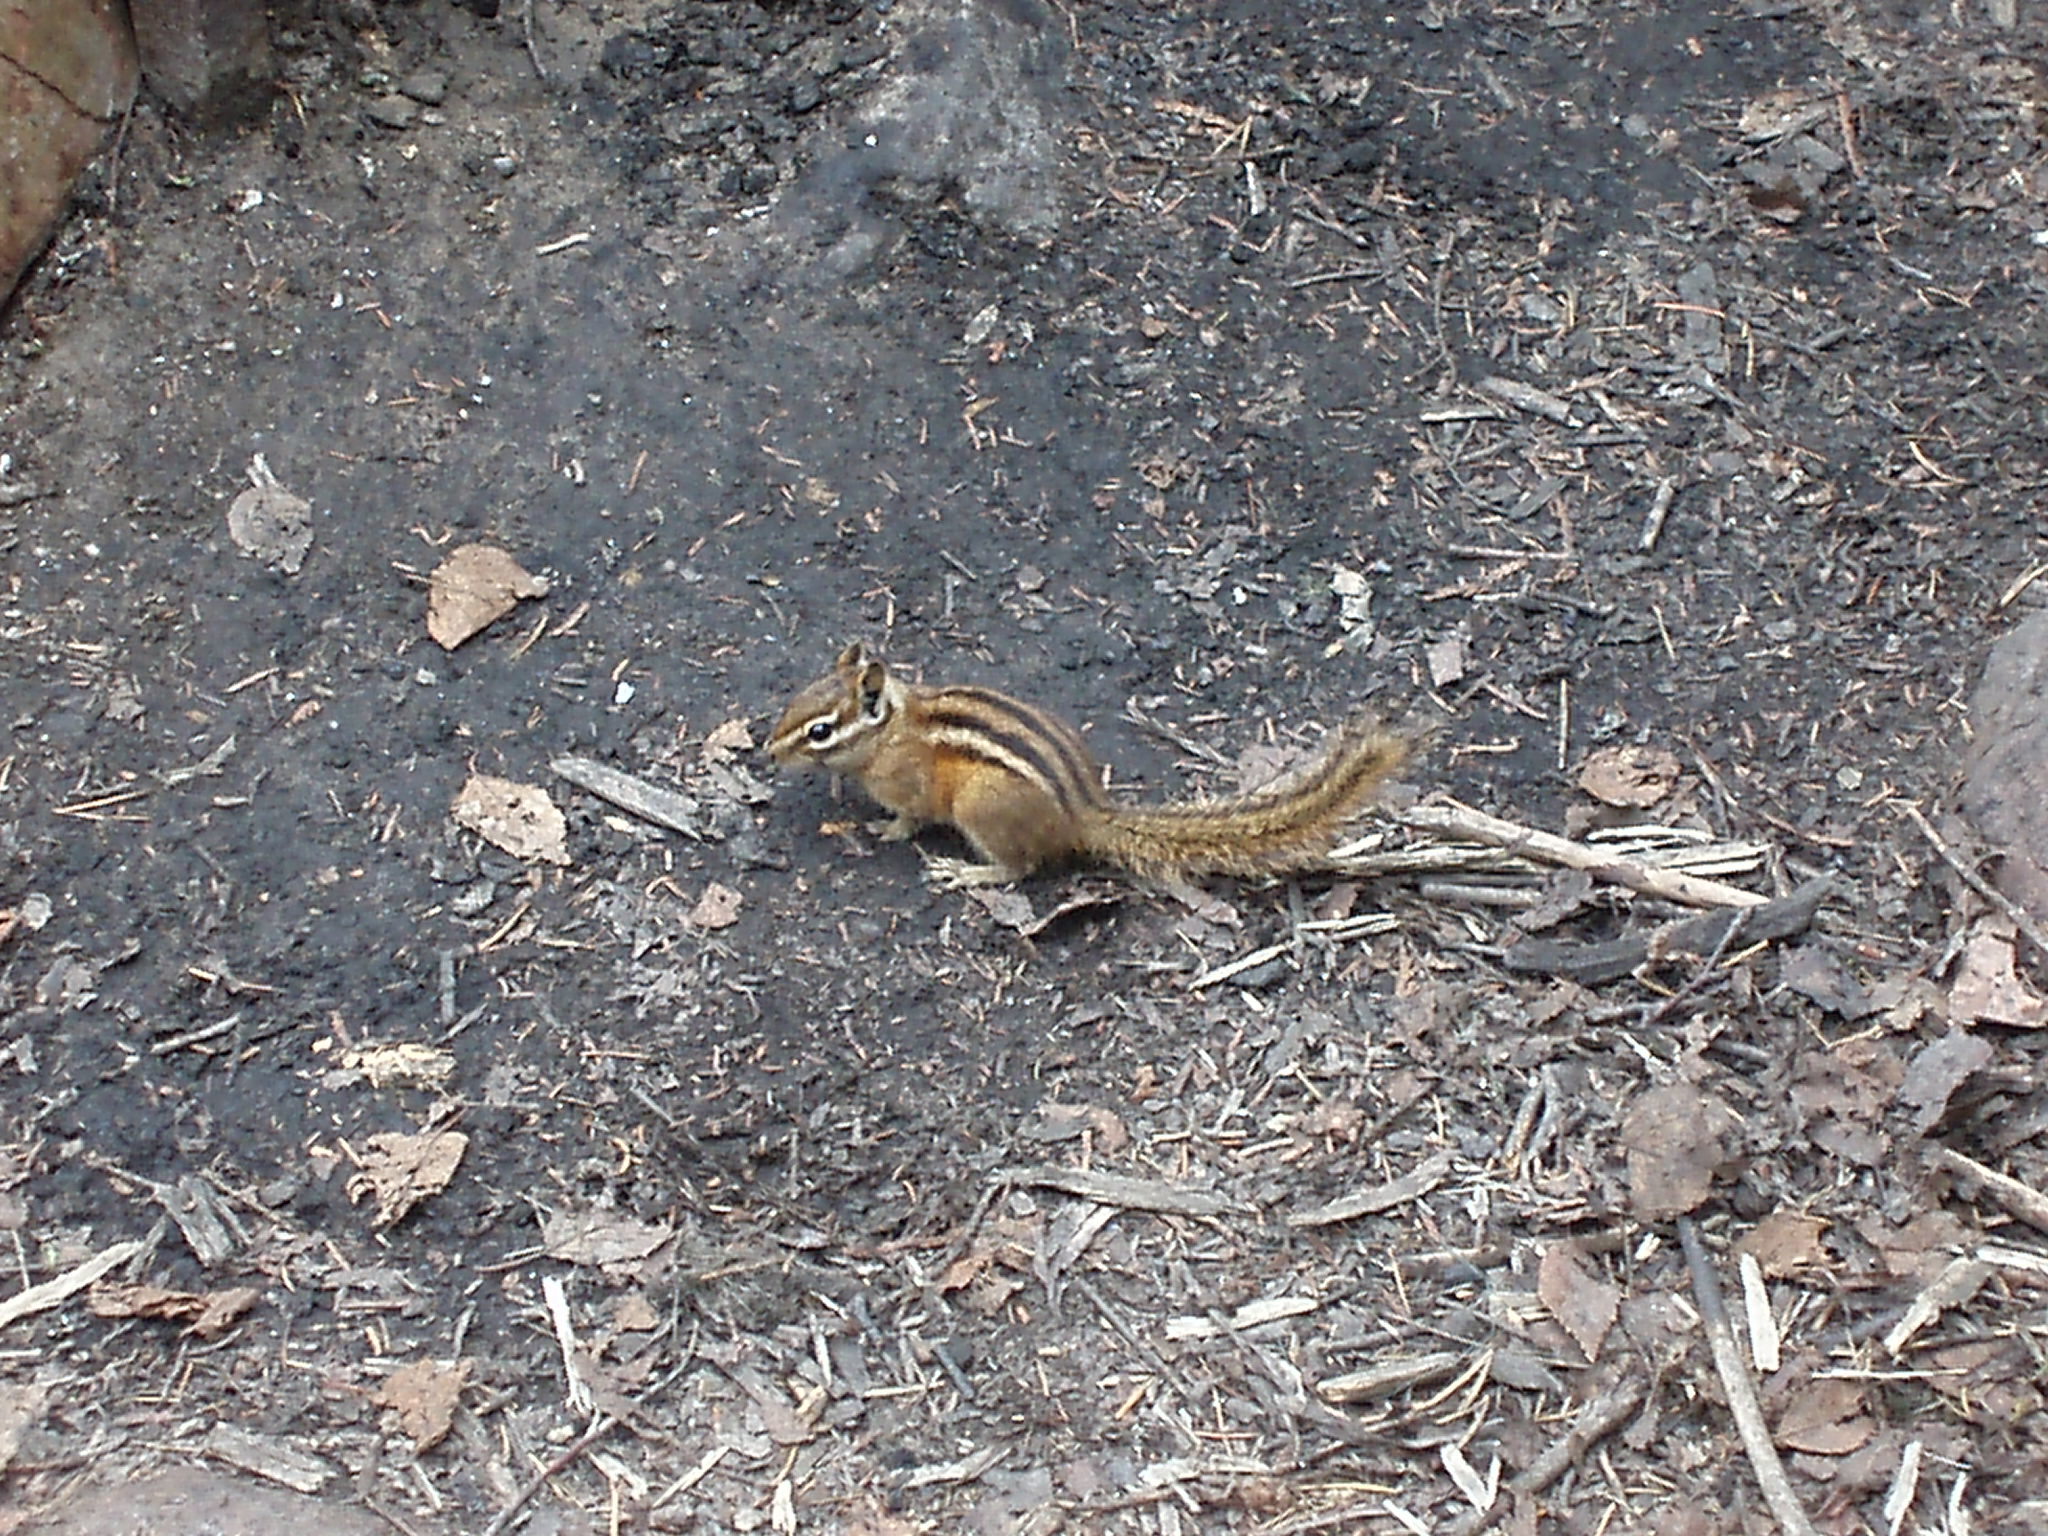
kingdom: Animalia
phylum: Chordata
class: Mammalia
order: Rodentia
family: Sciuridae
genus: Tamias
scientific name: Tamias minimus
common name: Least chipmunk
